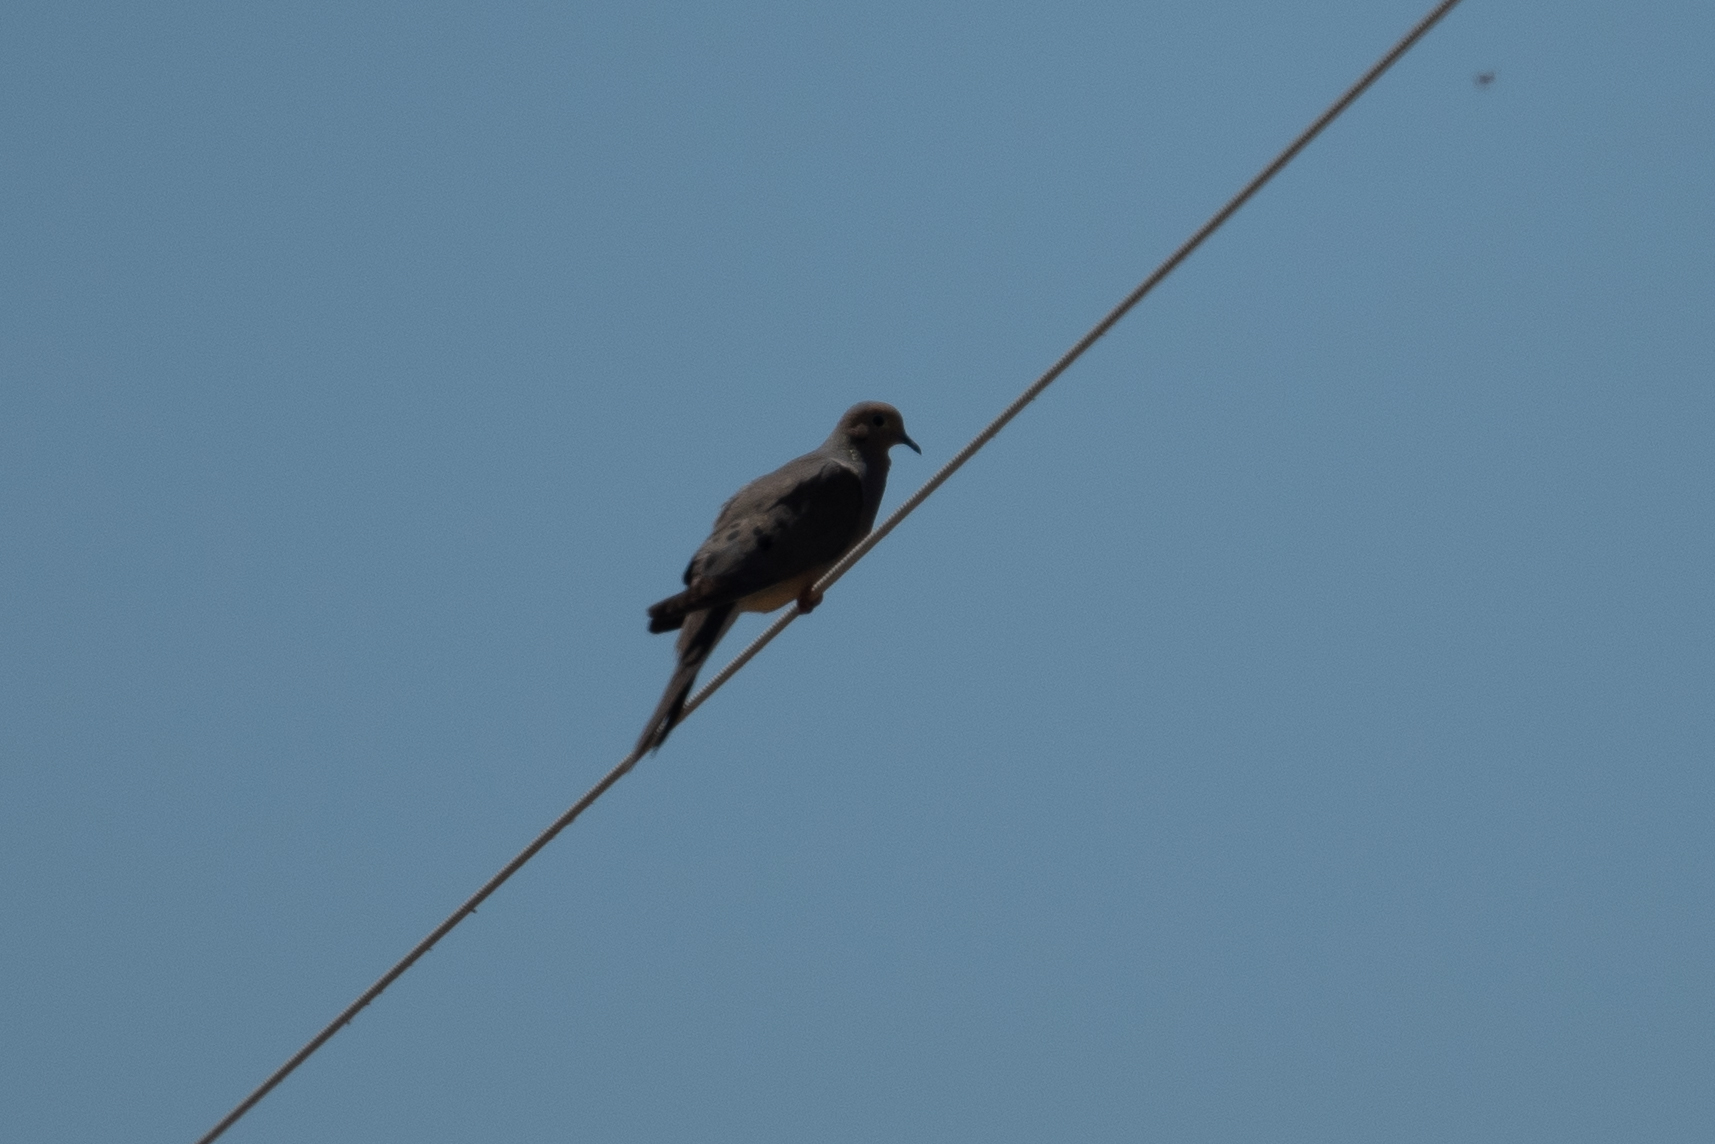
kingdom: Animalia
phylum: Chordata
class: Aves
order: Columbiformes
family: Columbidae
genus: Zenaida
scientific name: Zenaida macroura
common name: Mourning dove
